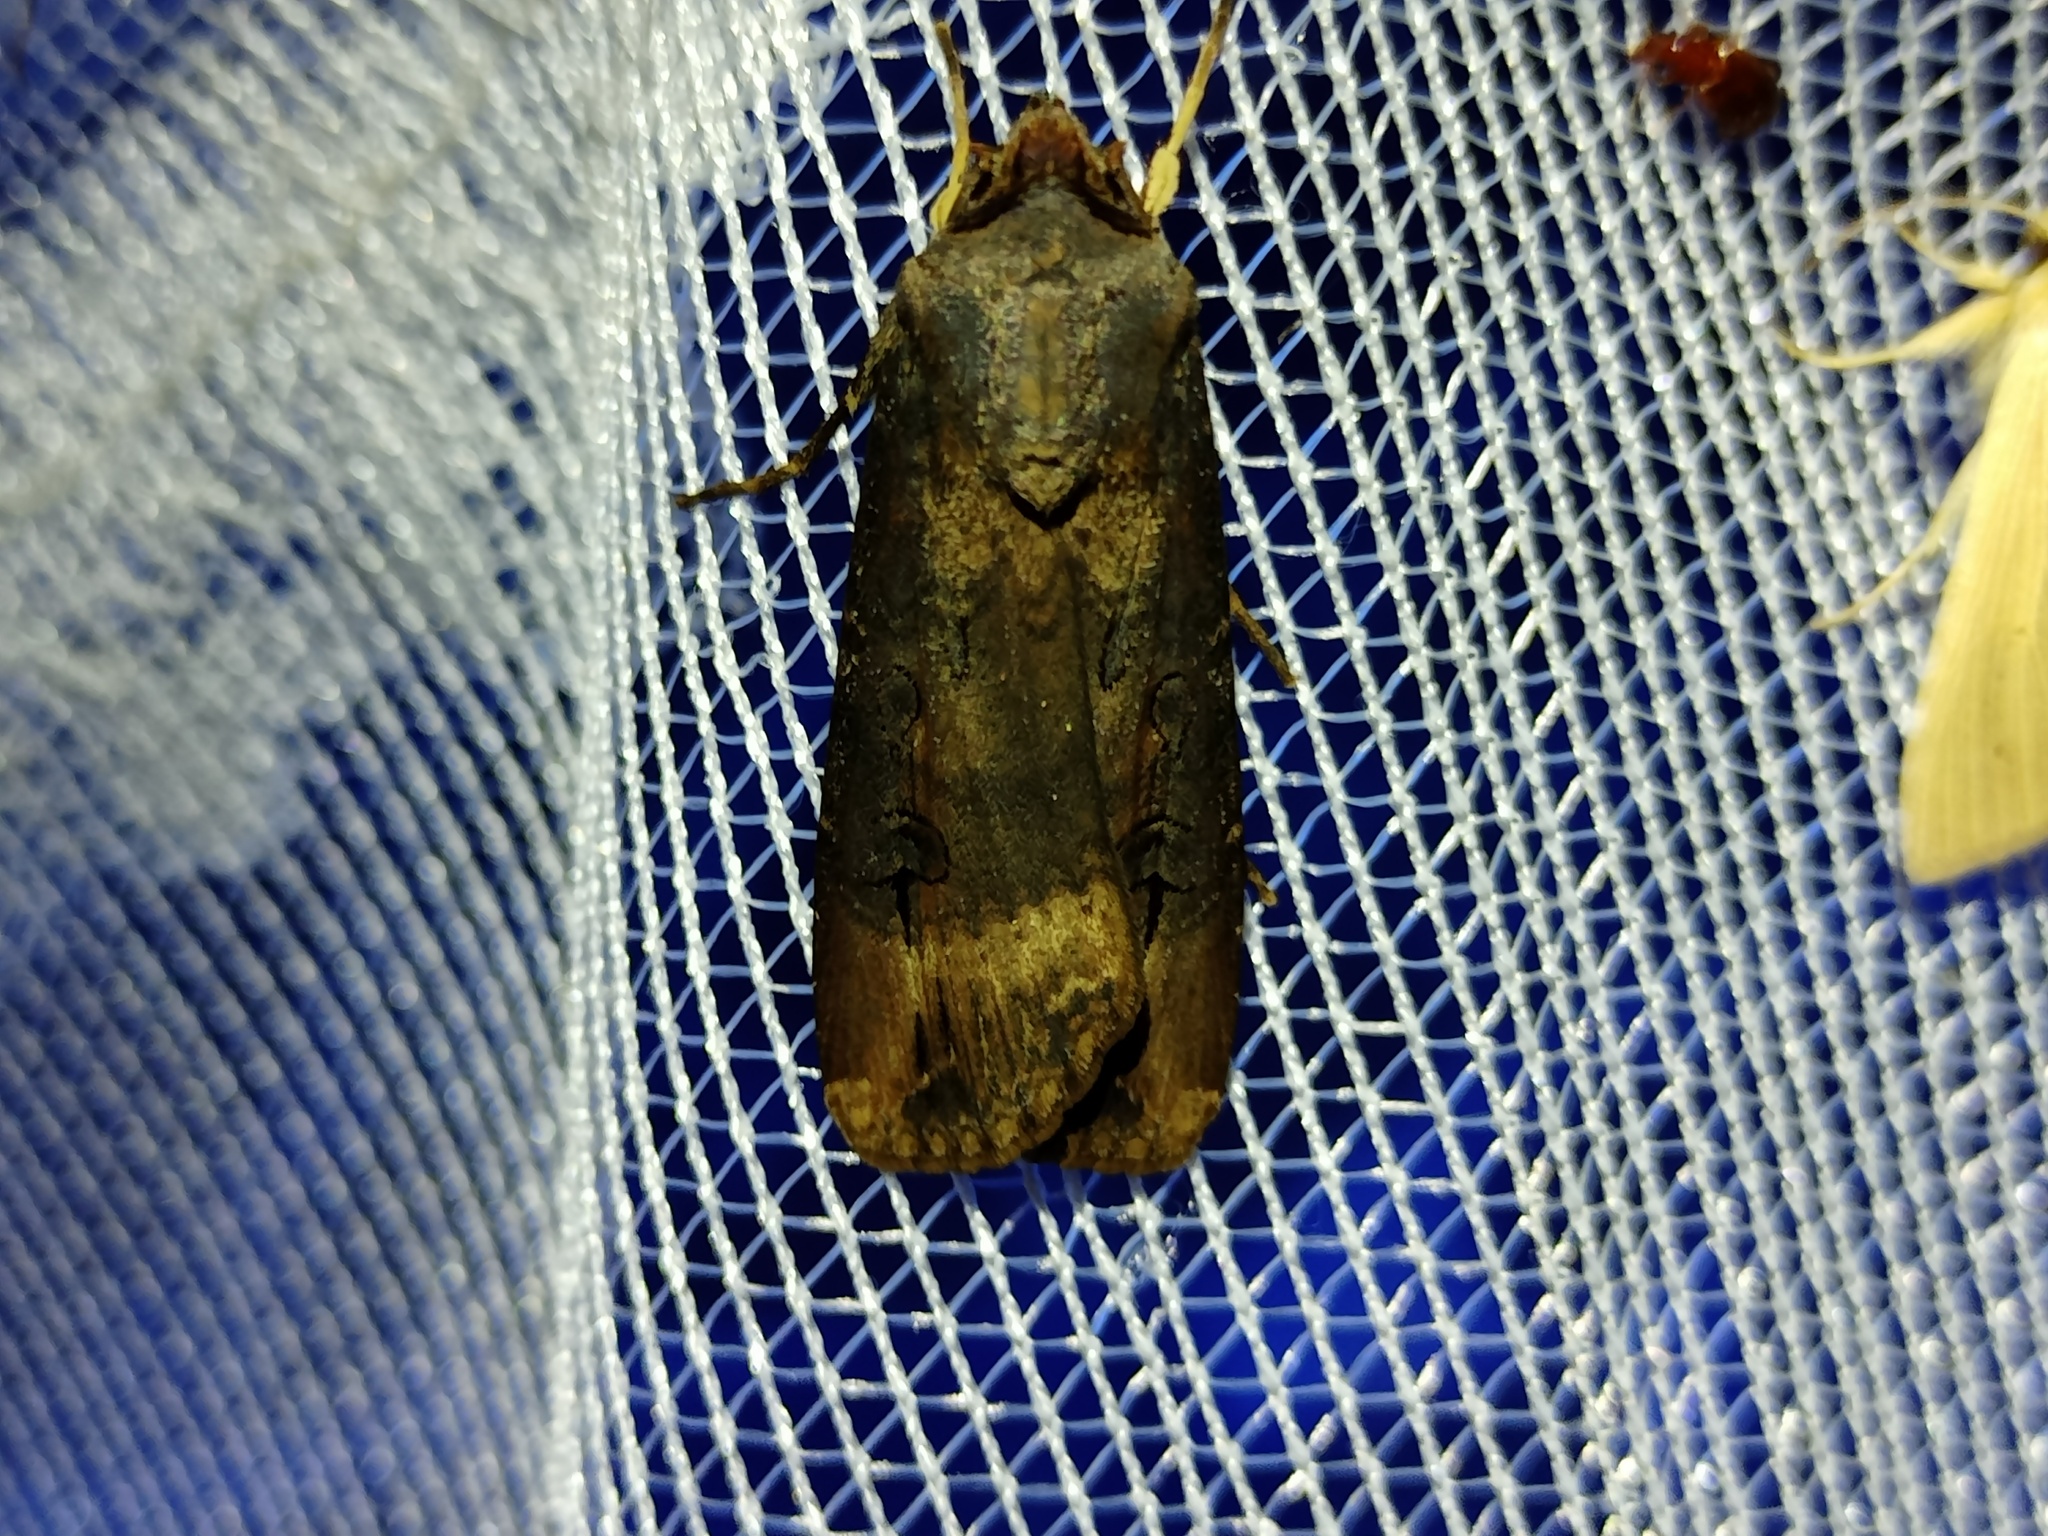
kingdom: Animalia
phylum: Arthropoda
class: Insecta
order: Lepidoptera
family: Noctuidae
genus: Agrotis
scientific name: Agrotis ipsilon
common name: Dark sword-grass
